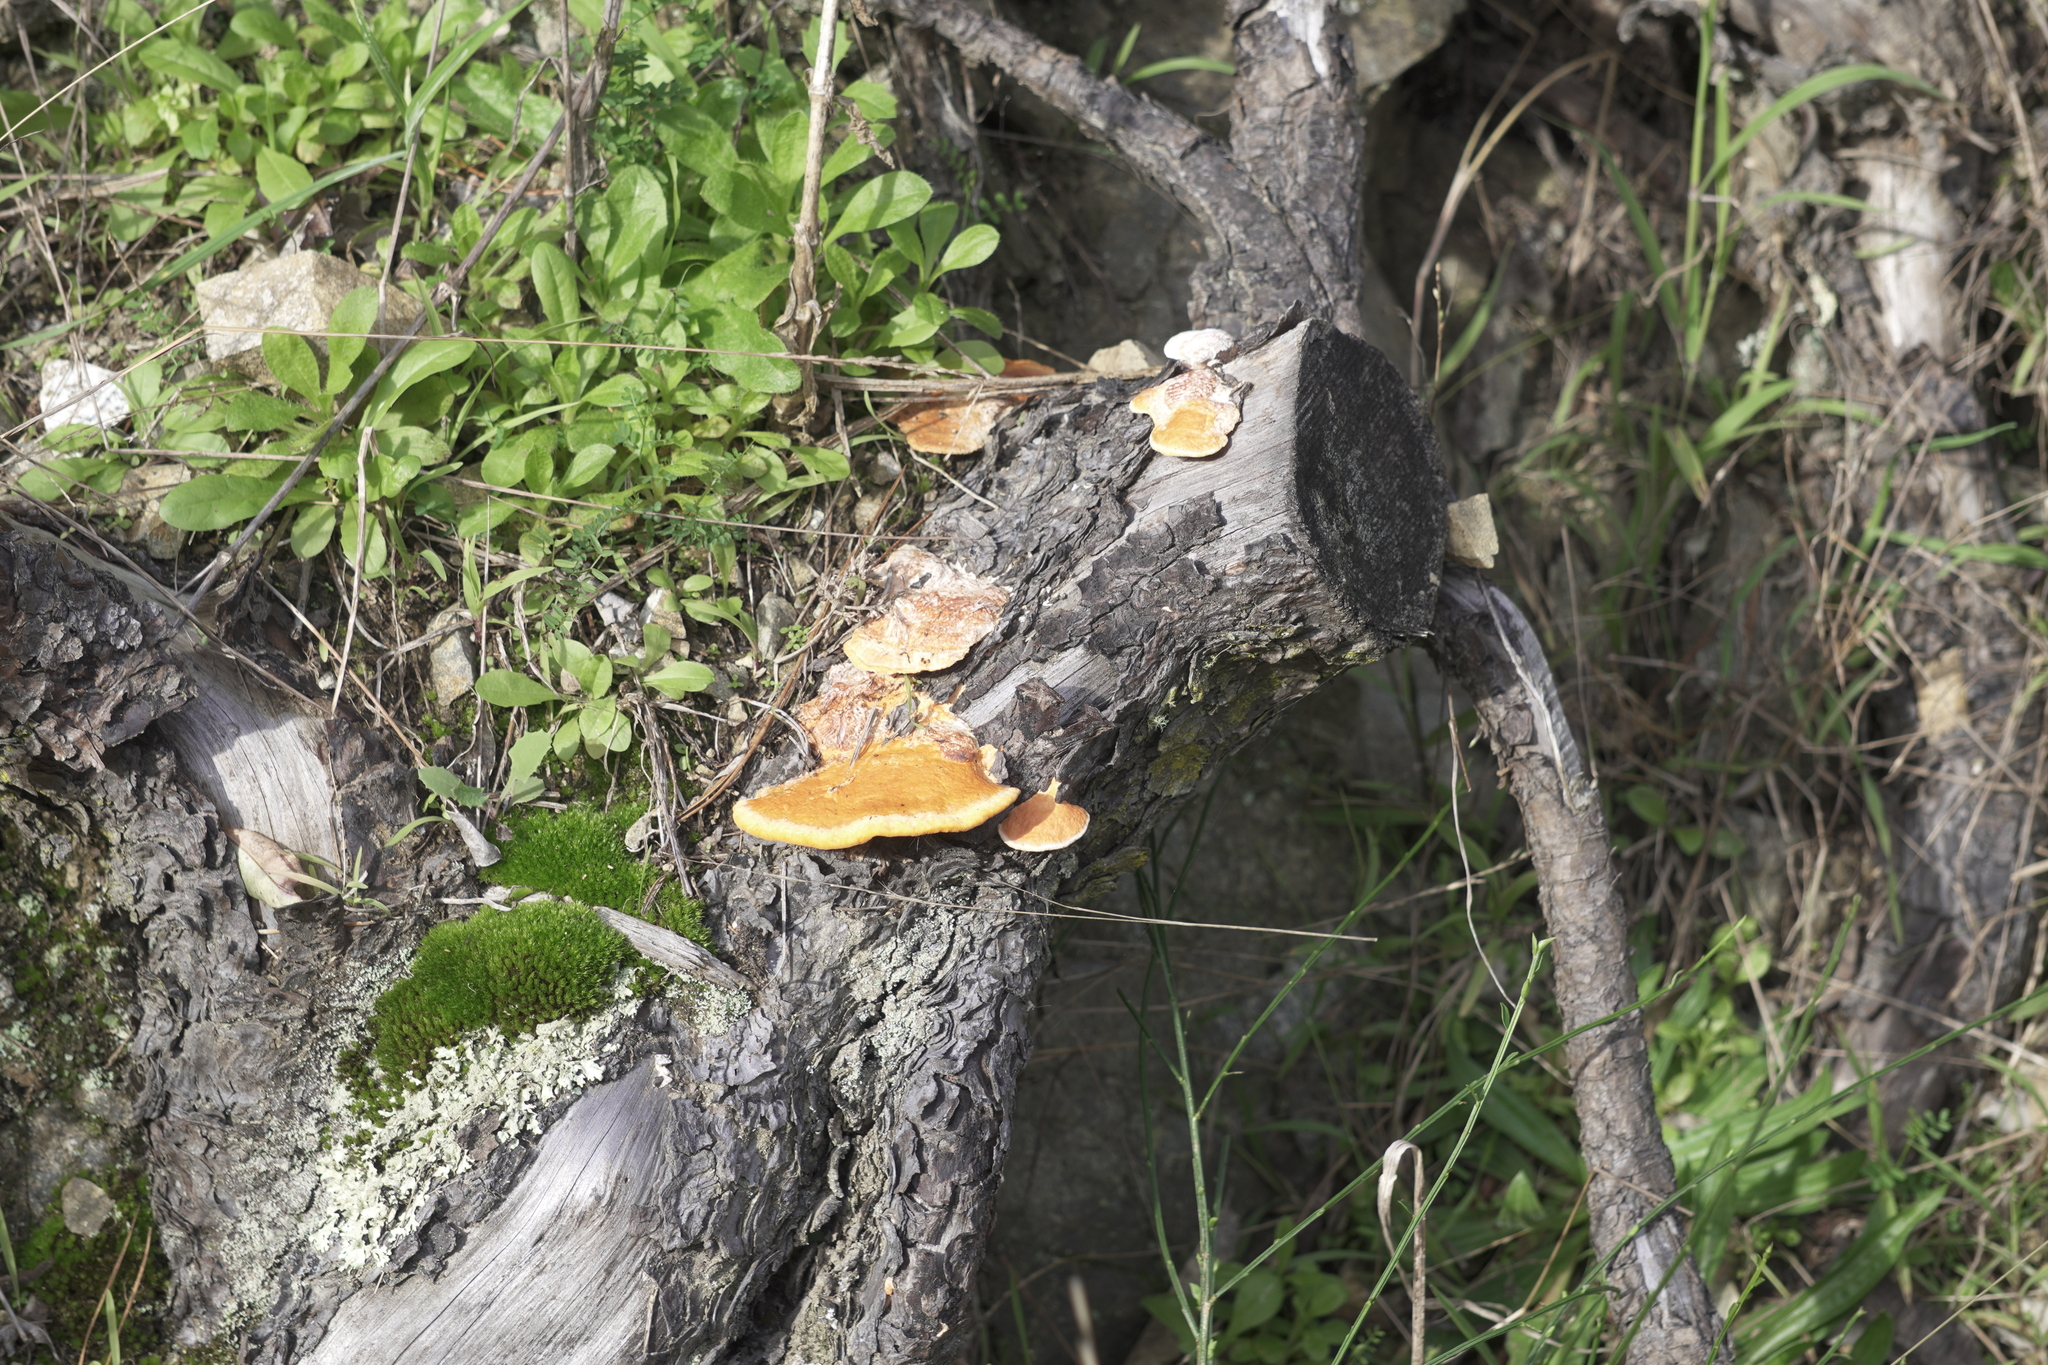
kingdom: Fungi
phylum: Basidiomycota
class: Agaricomycetes
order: Polyporales
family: Polyporaceae
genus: Trametes
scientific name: Trametes coccinea
